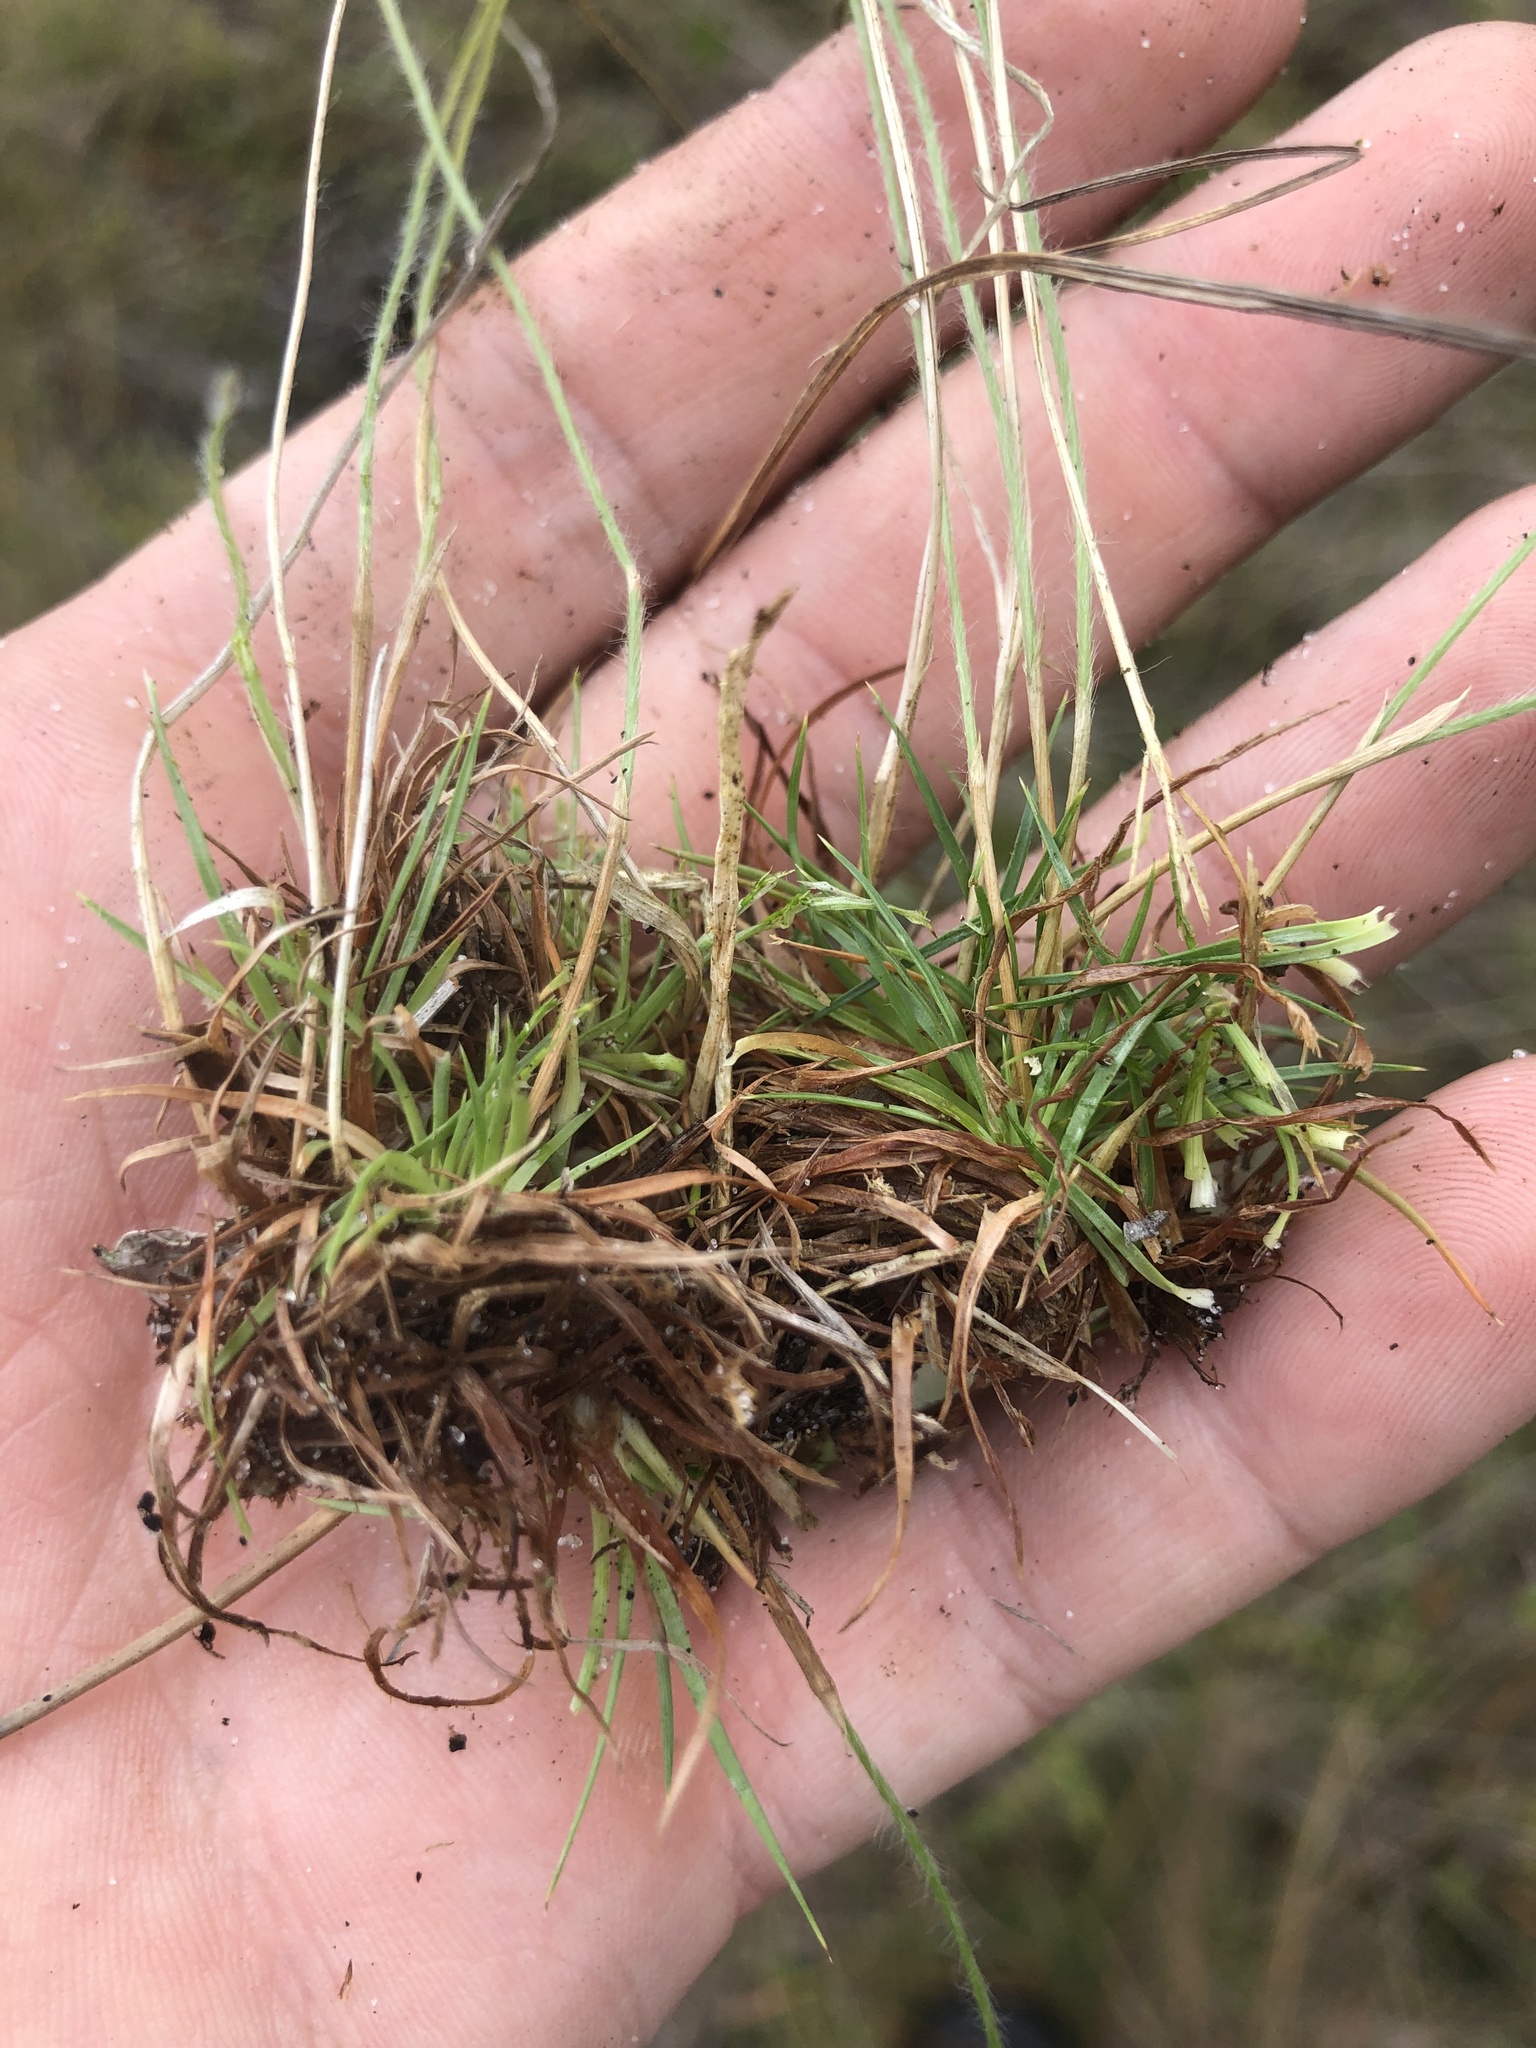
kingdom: Plantae
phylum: Tracheophyta
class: Liliopsida
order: Poales
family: Eriocaulaceae
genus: Paepalanthus
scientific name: Paepalanthus beyrichianus
